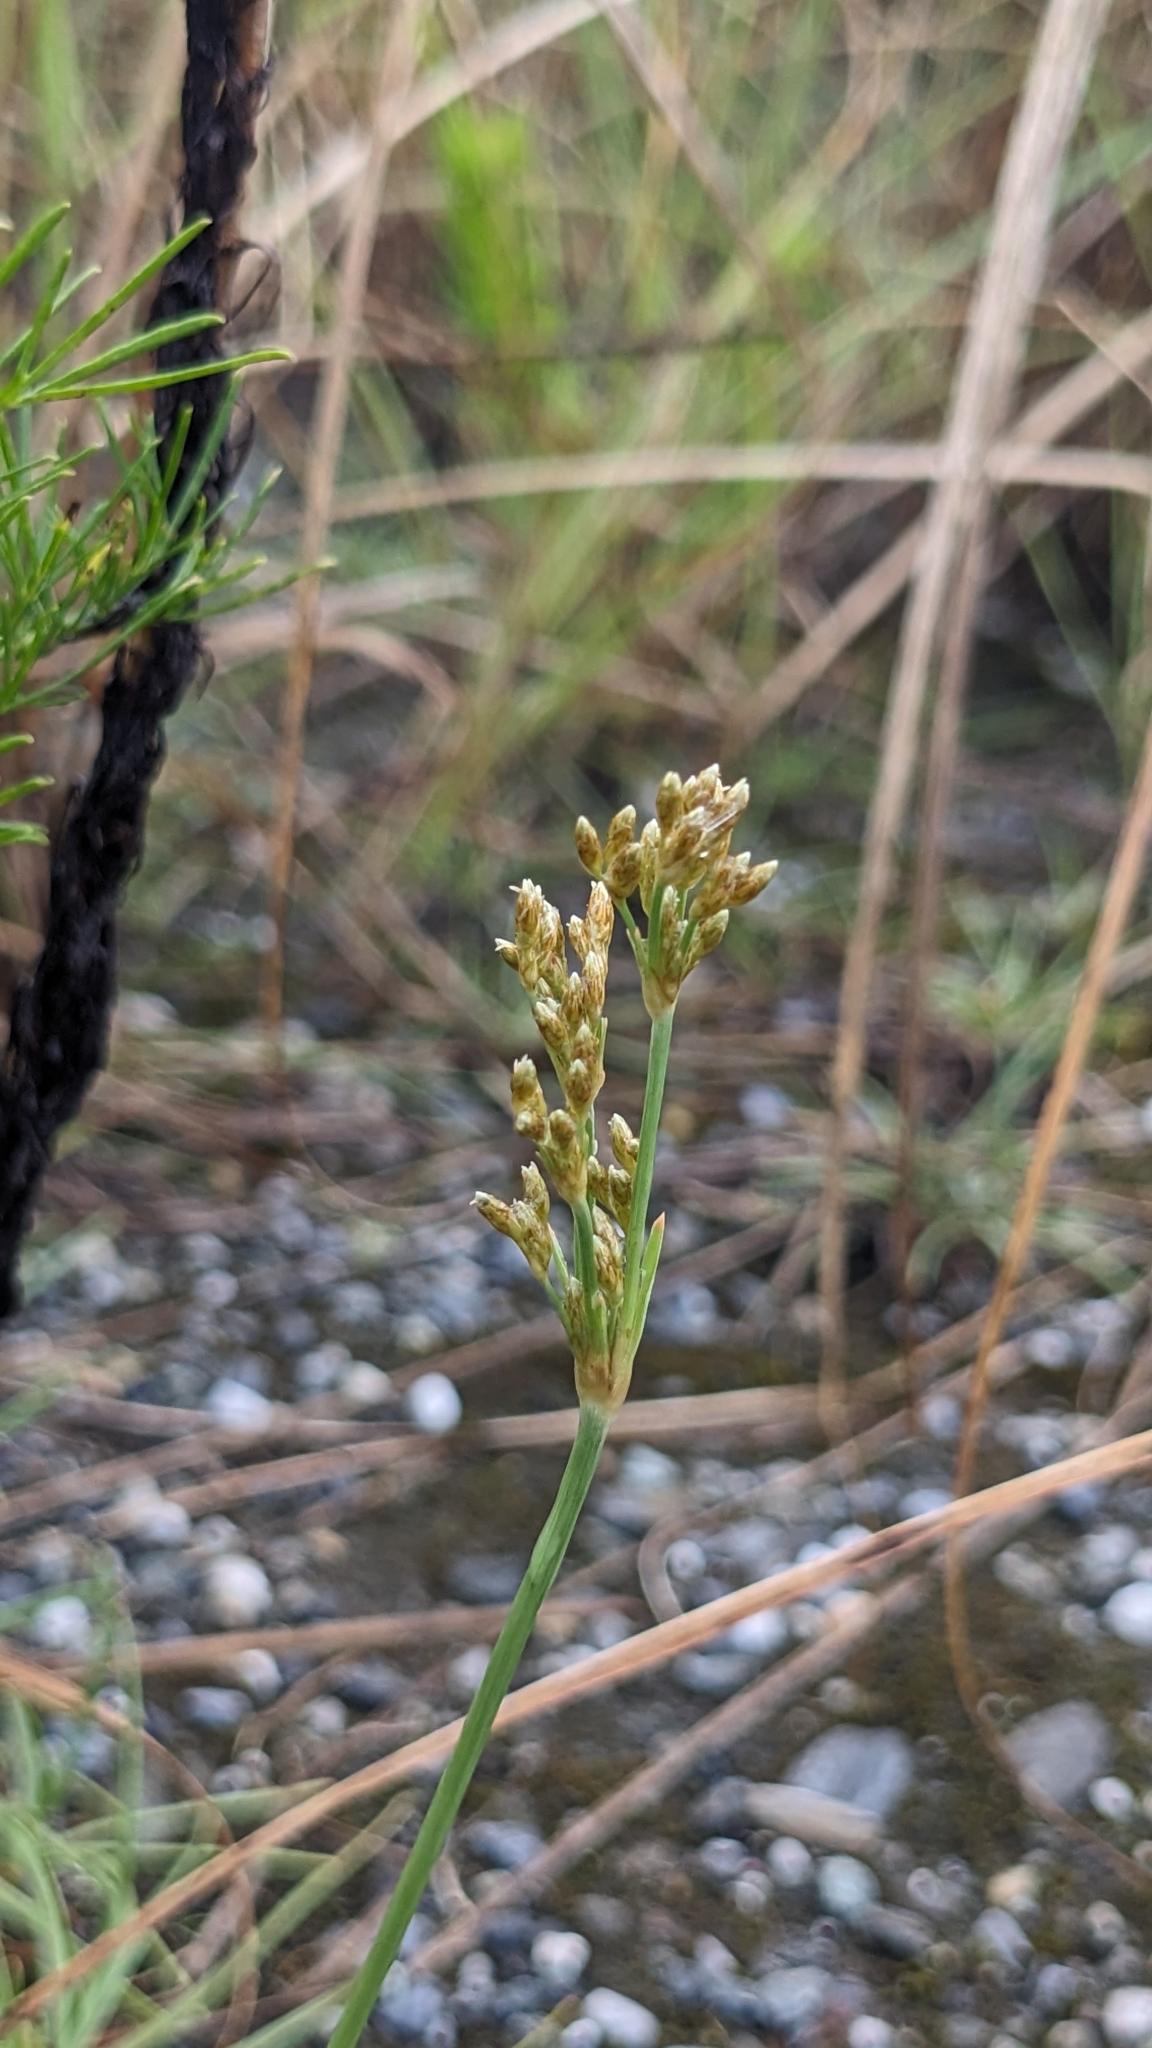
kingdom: Plantae
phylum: Tracheophyta
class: Liliopsida
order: Poales
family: Cyperaceae
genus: Fimbristylis
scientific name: Fimbristylis cymosa
